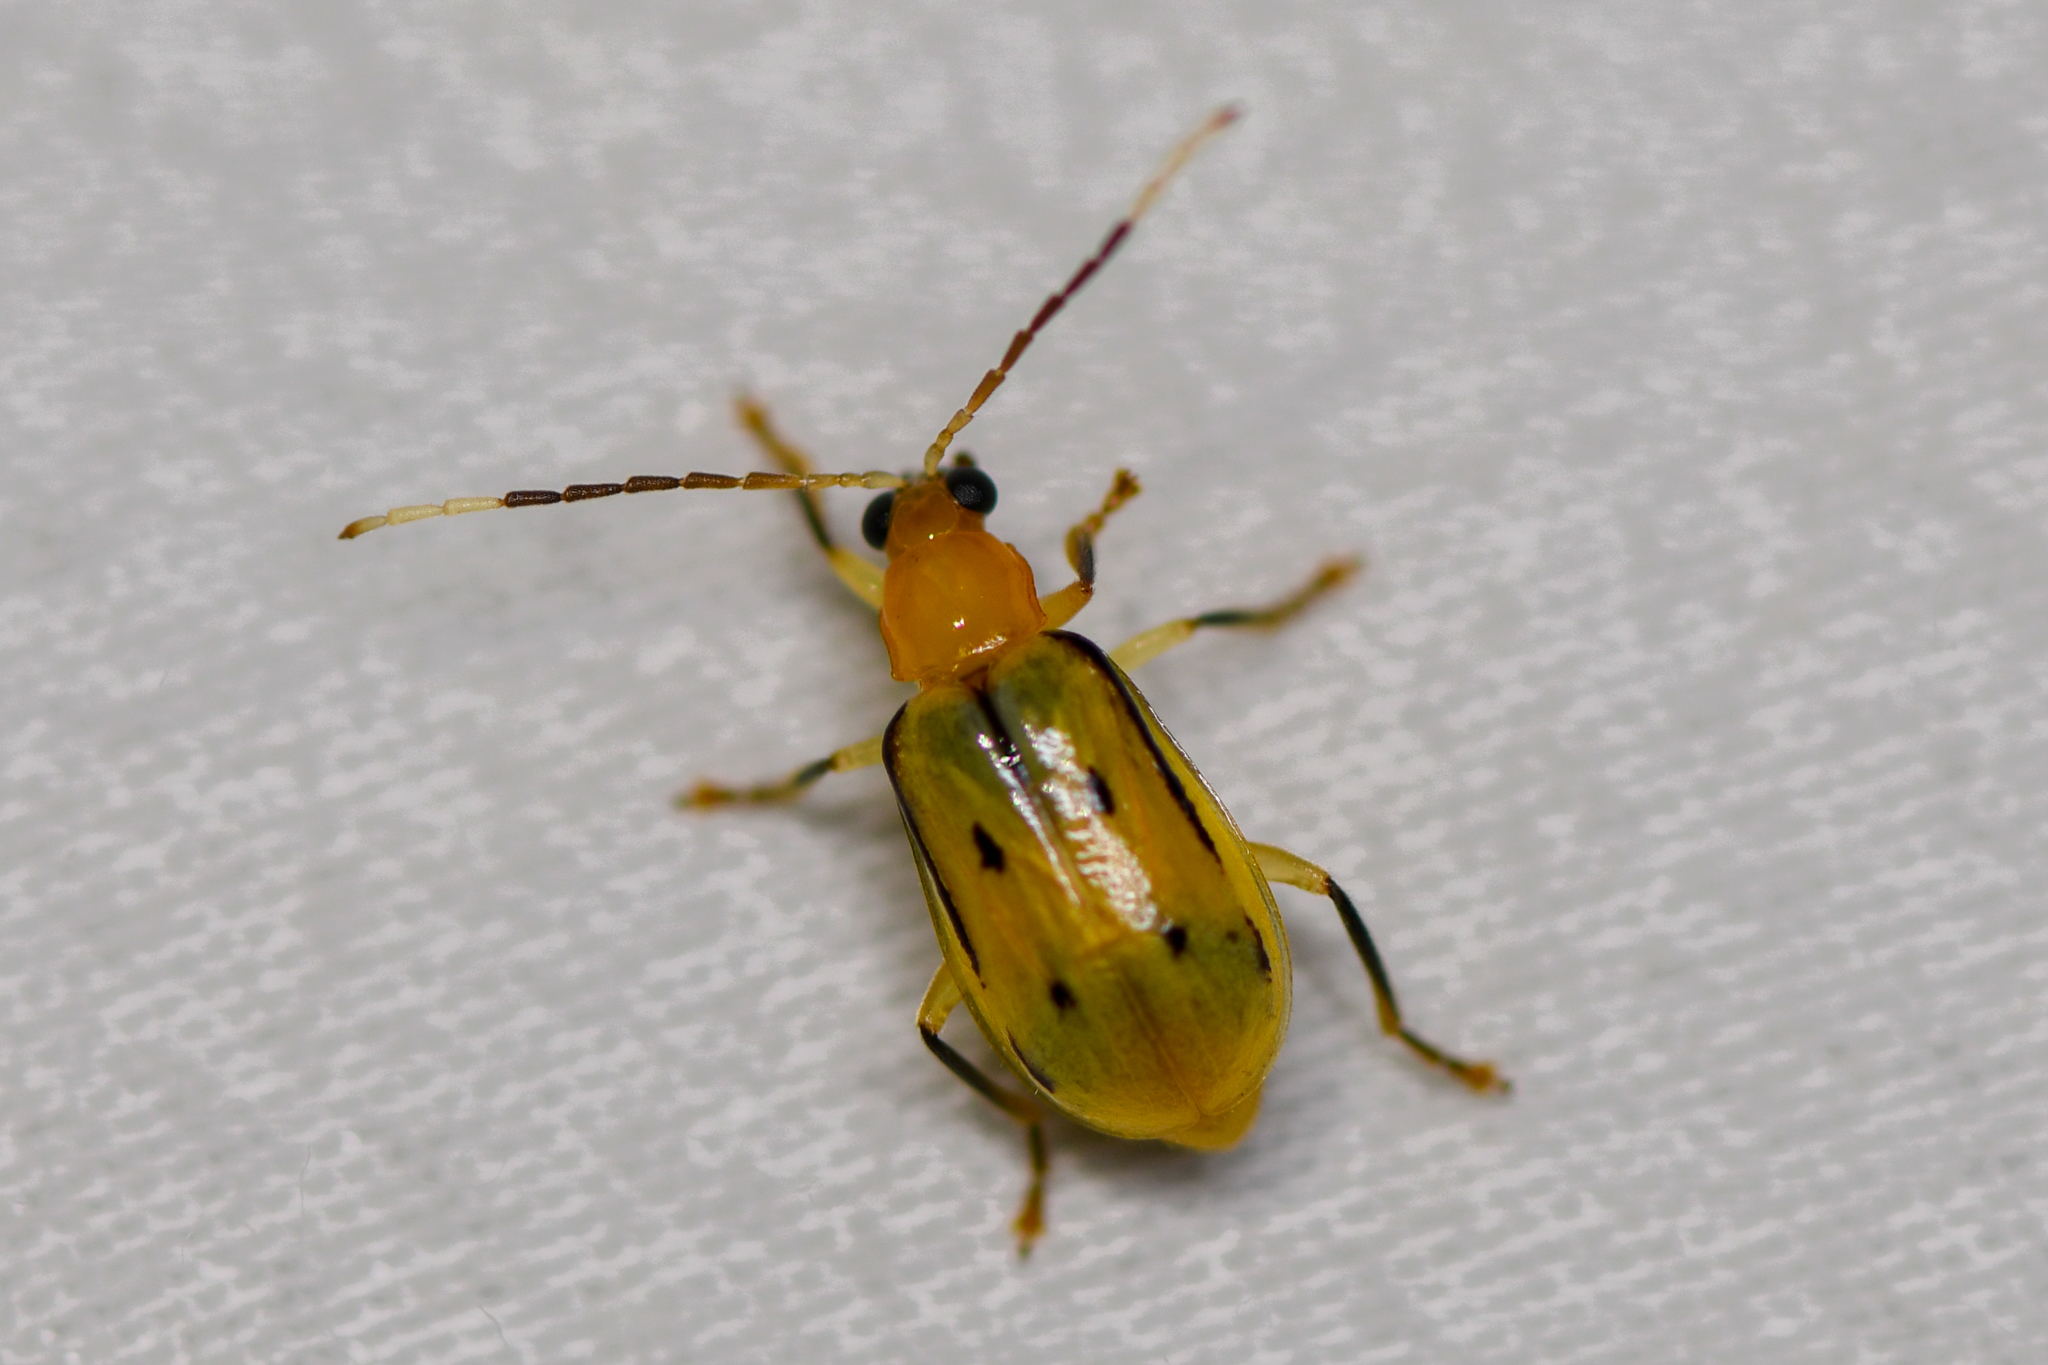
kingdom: Animalia
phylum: Arthropoda
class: Insecta
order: Coleoptera
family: Chrysomelidae
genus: Diabrotica
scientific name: Diabrotica
